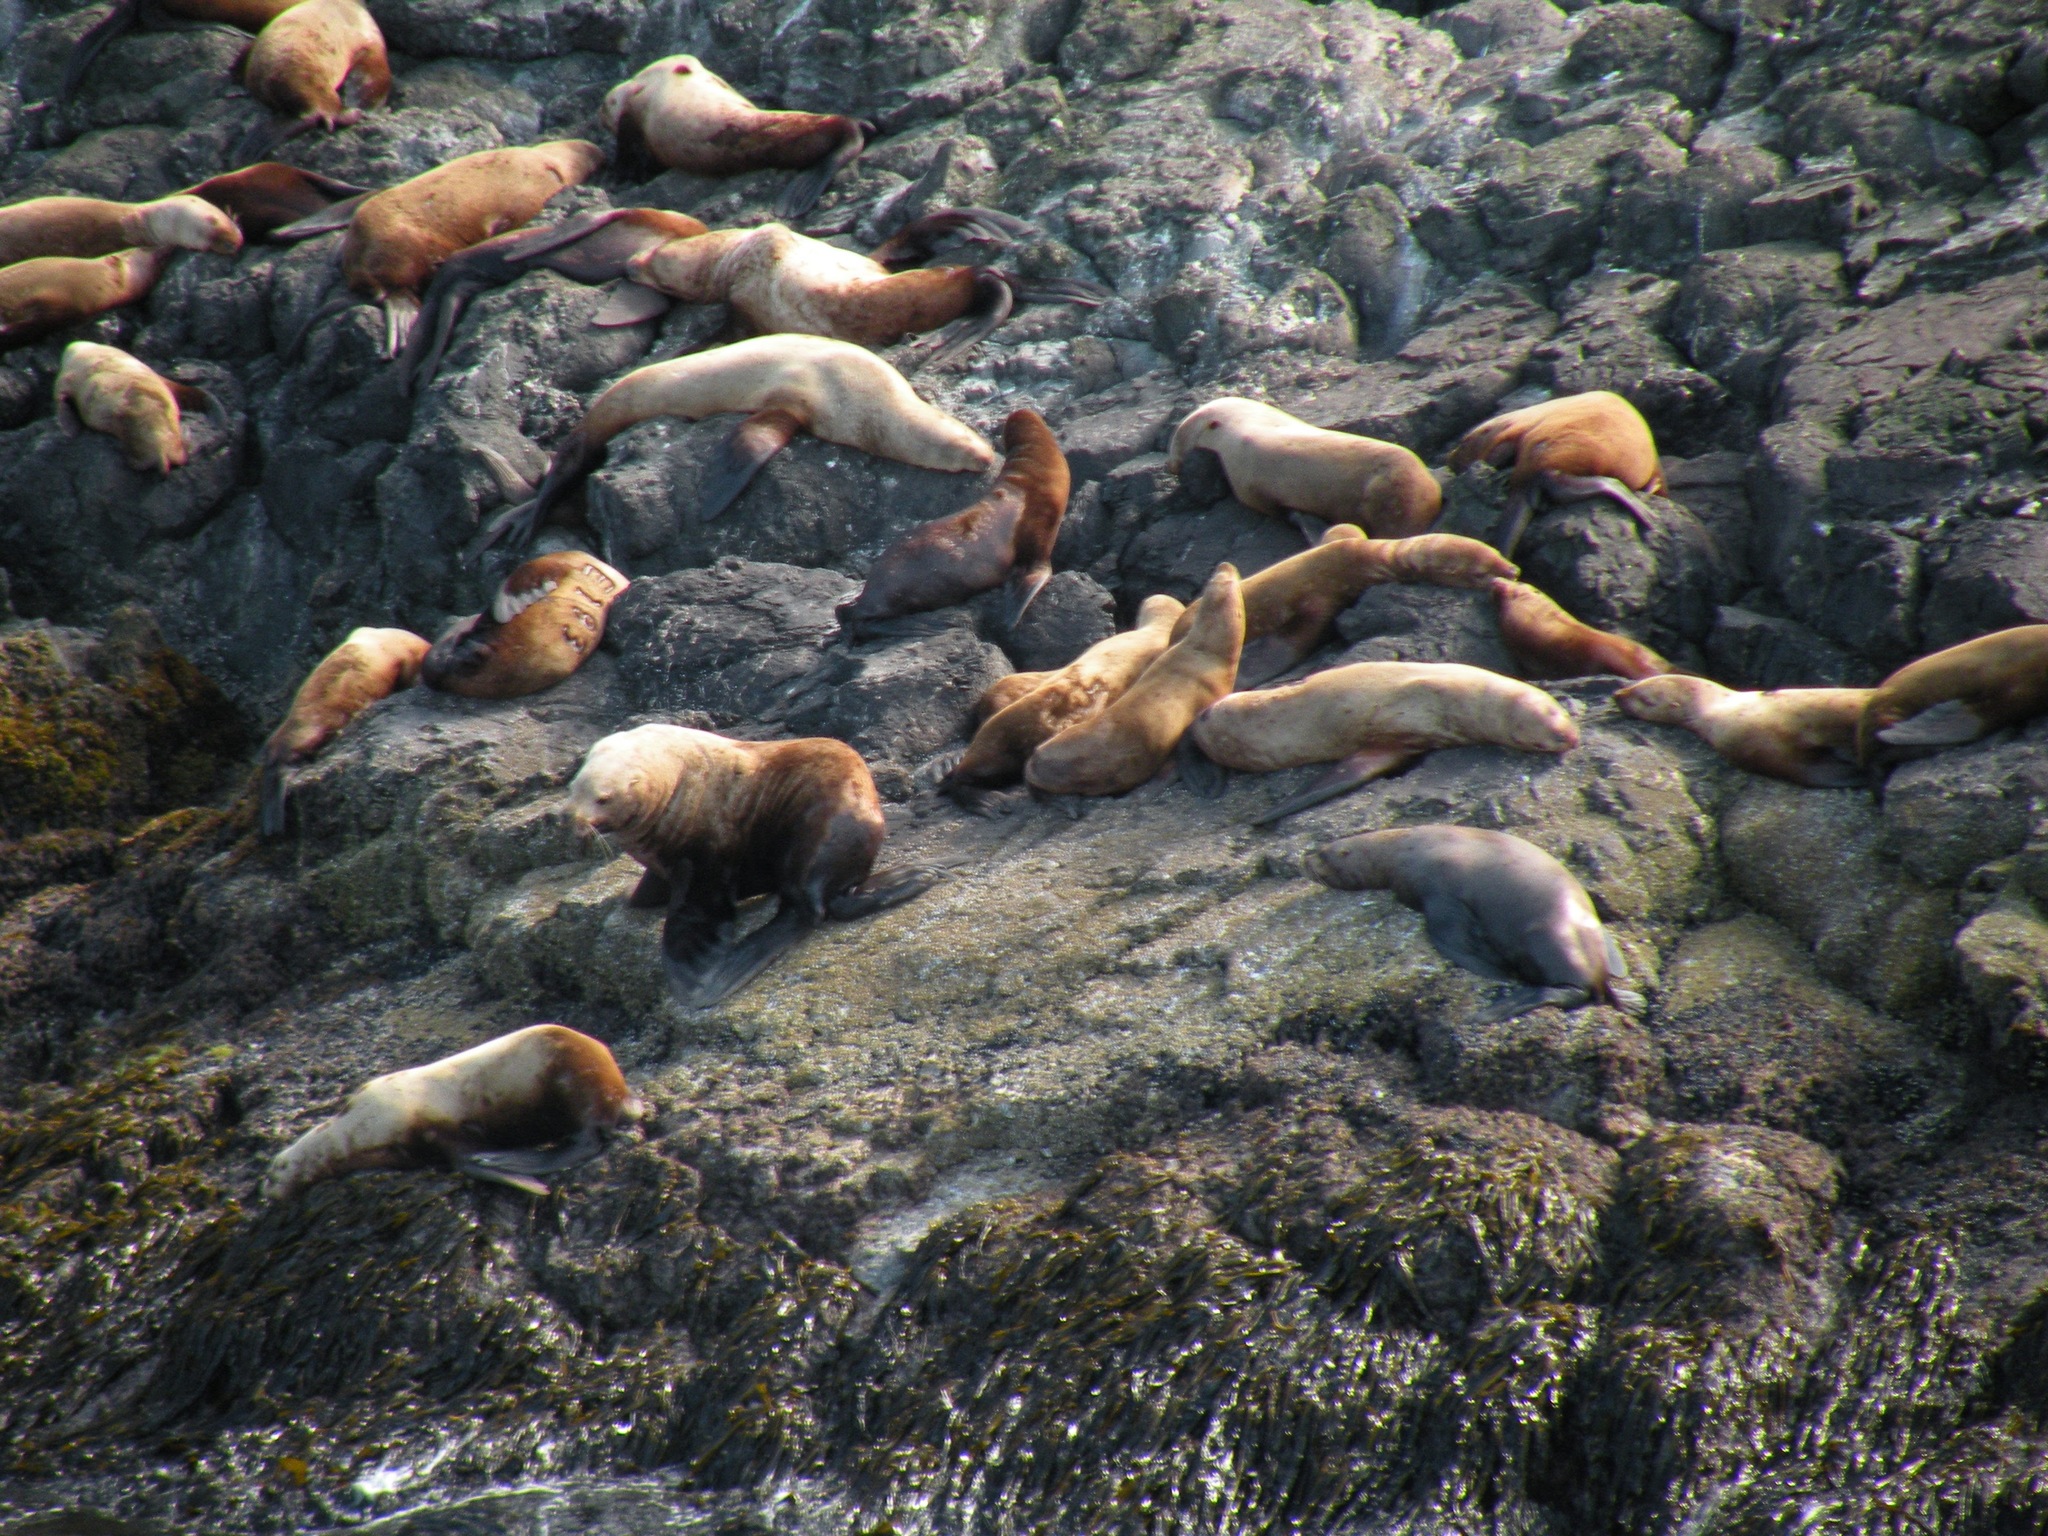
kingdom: Animalia
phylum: Chordata
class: Mammalia
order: Carnivora
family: Otariidae
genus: Eumetopias
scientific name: Eumetopias jubatus
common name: Steller sea lion
